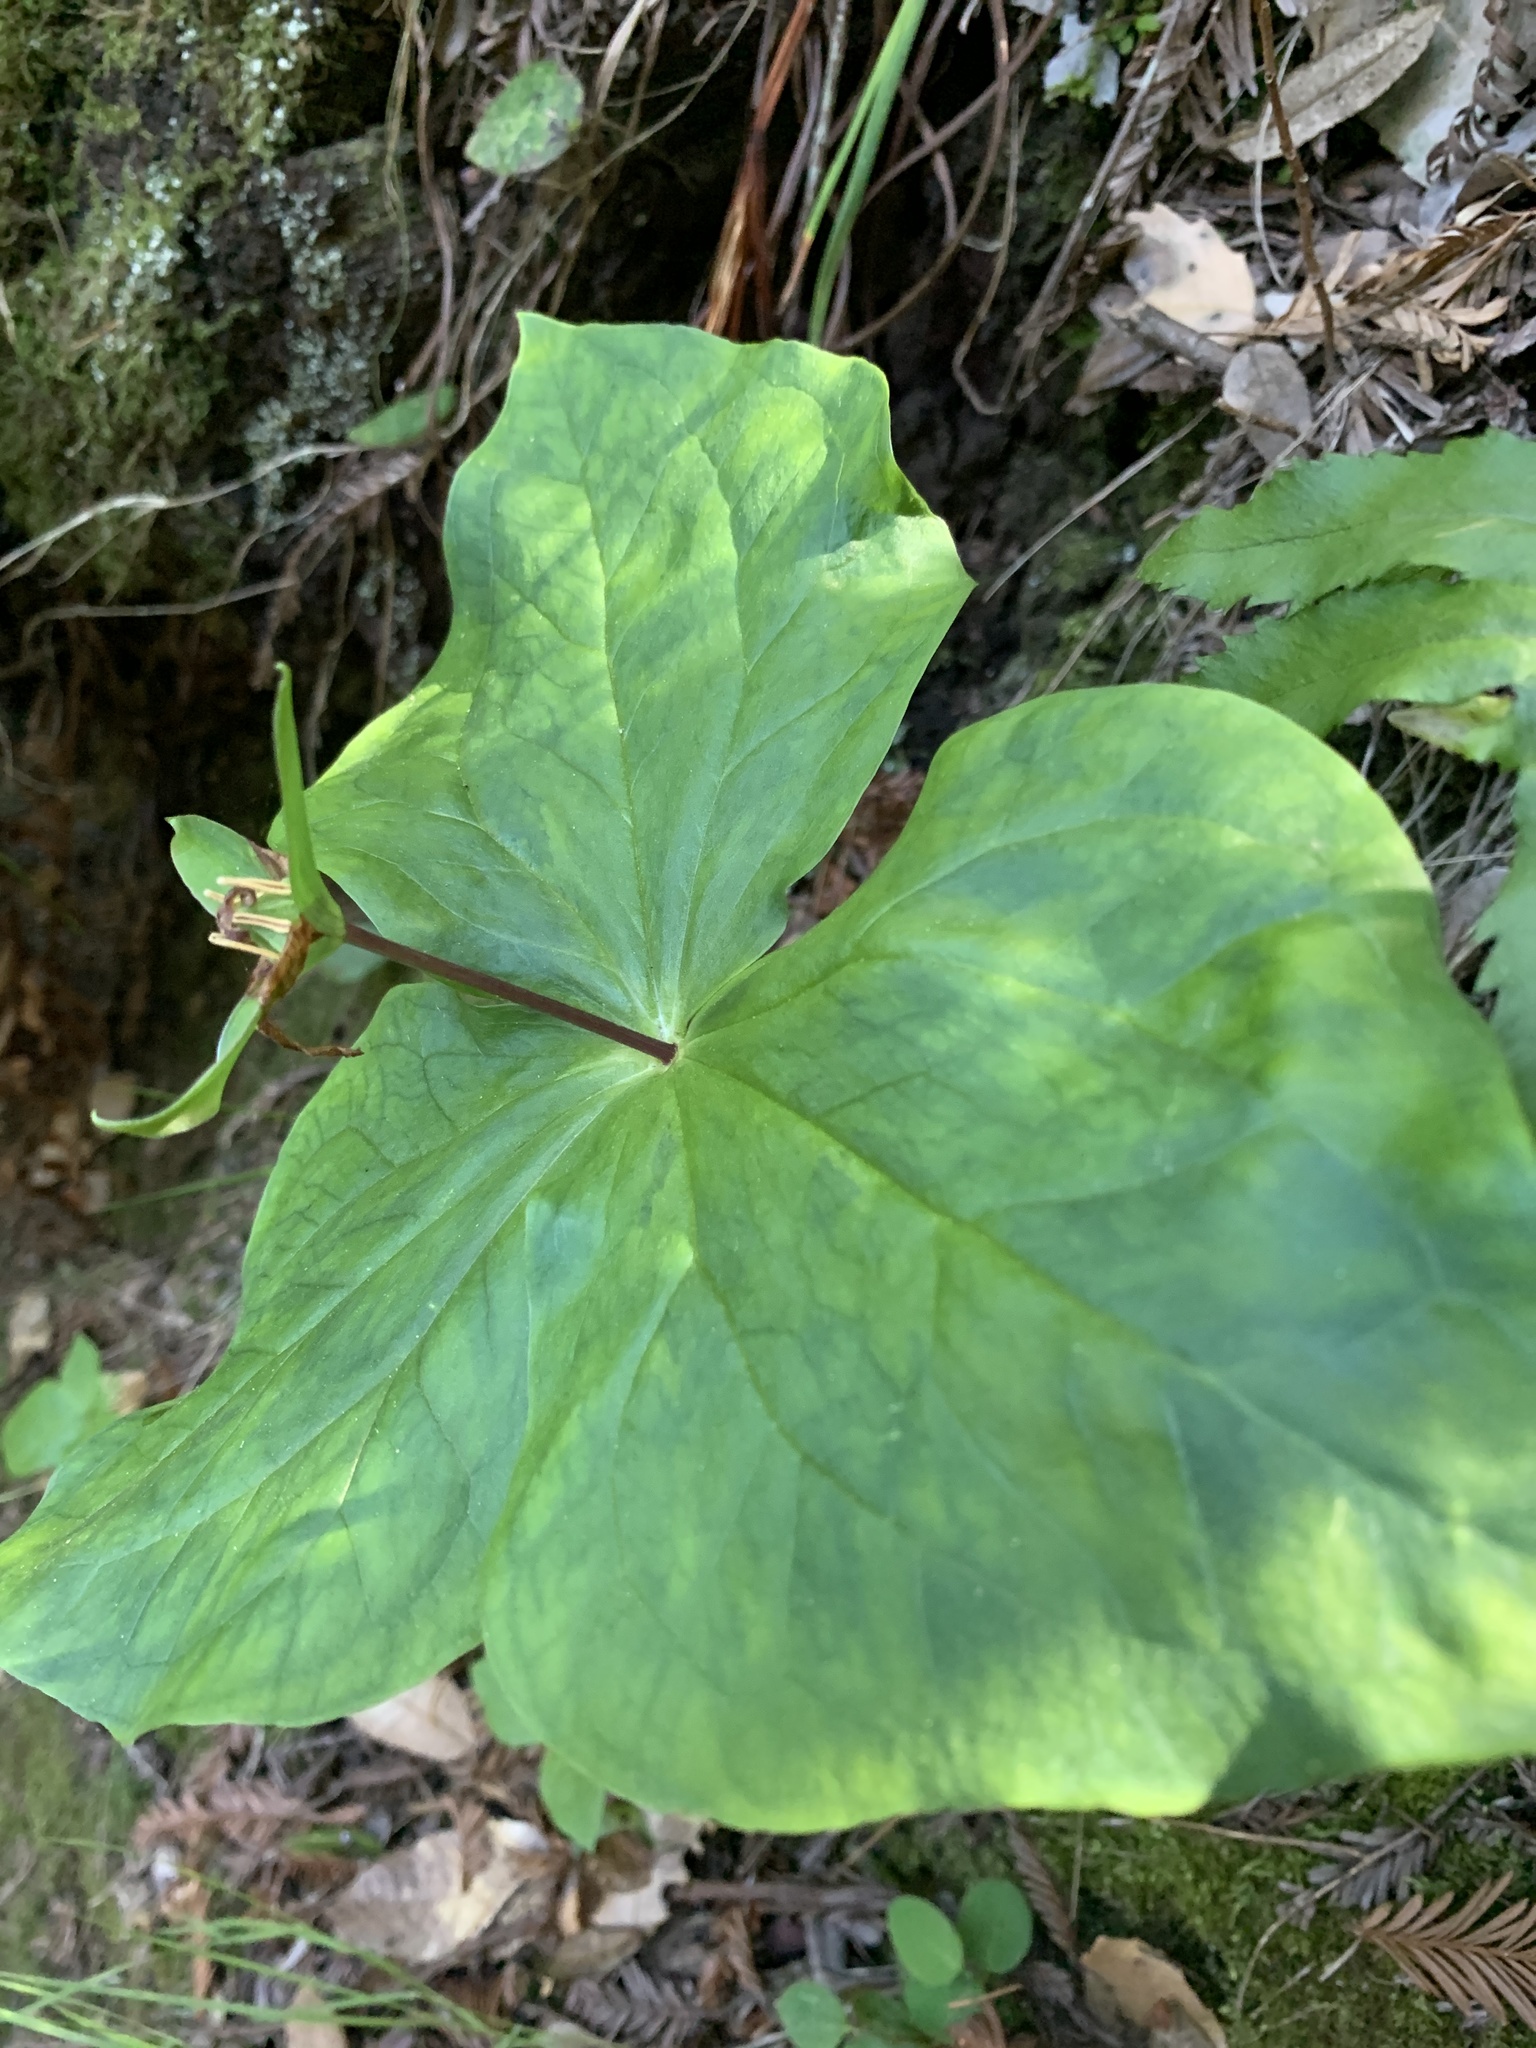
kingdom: Plantae
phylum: Tracheophyta
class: Liliopsida
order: Liliales
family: Melanthiaceae
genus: Trillium
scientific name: Trillium ovatum
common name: Pacific trillium
